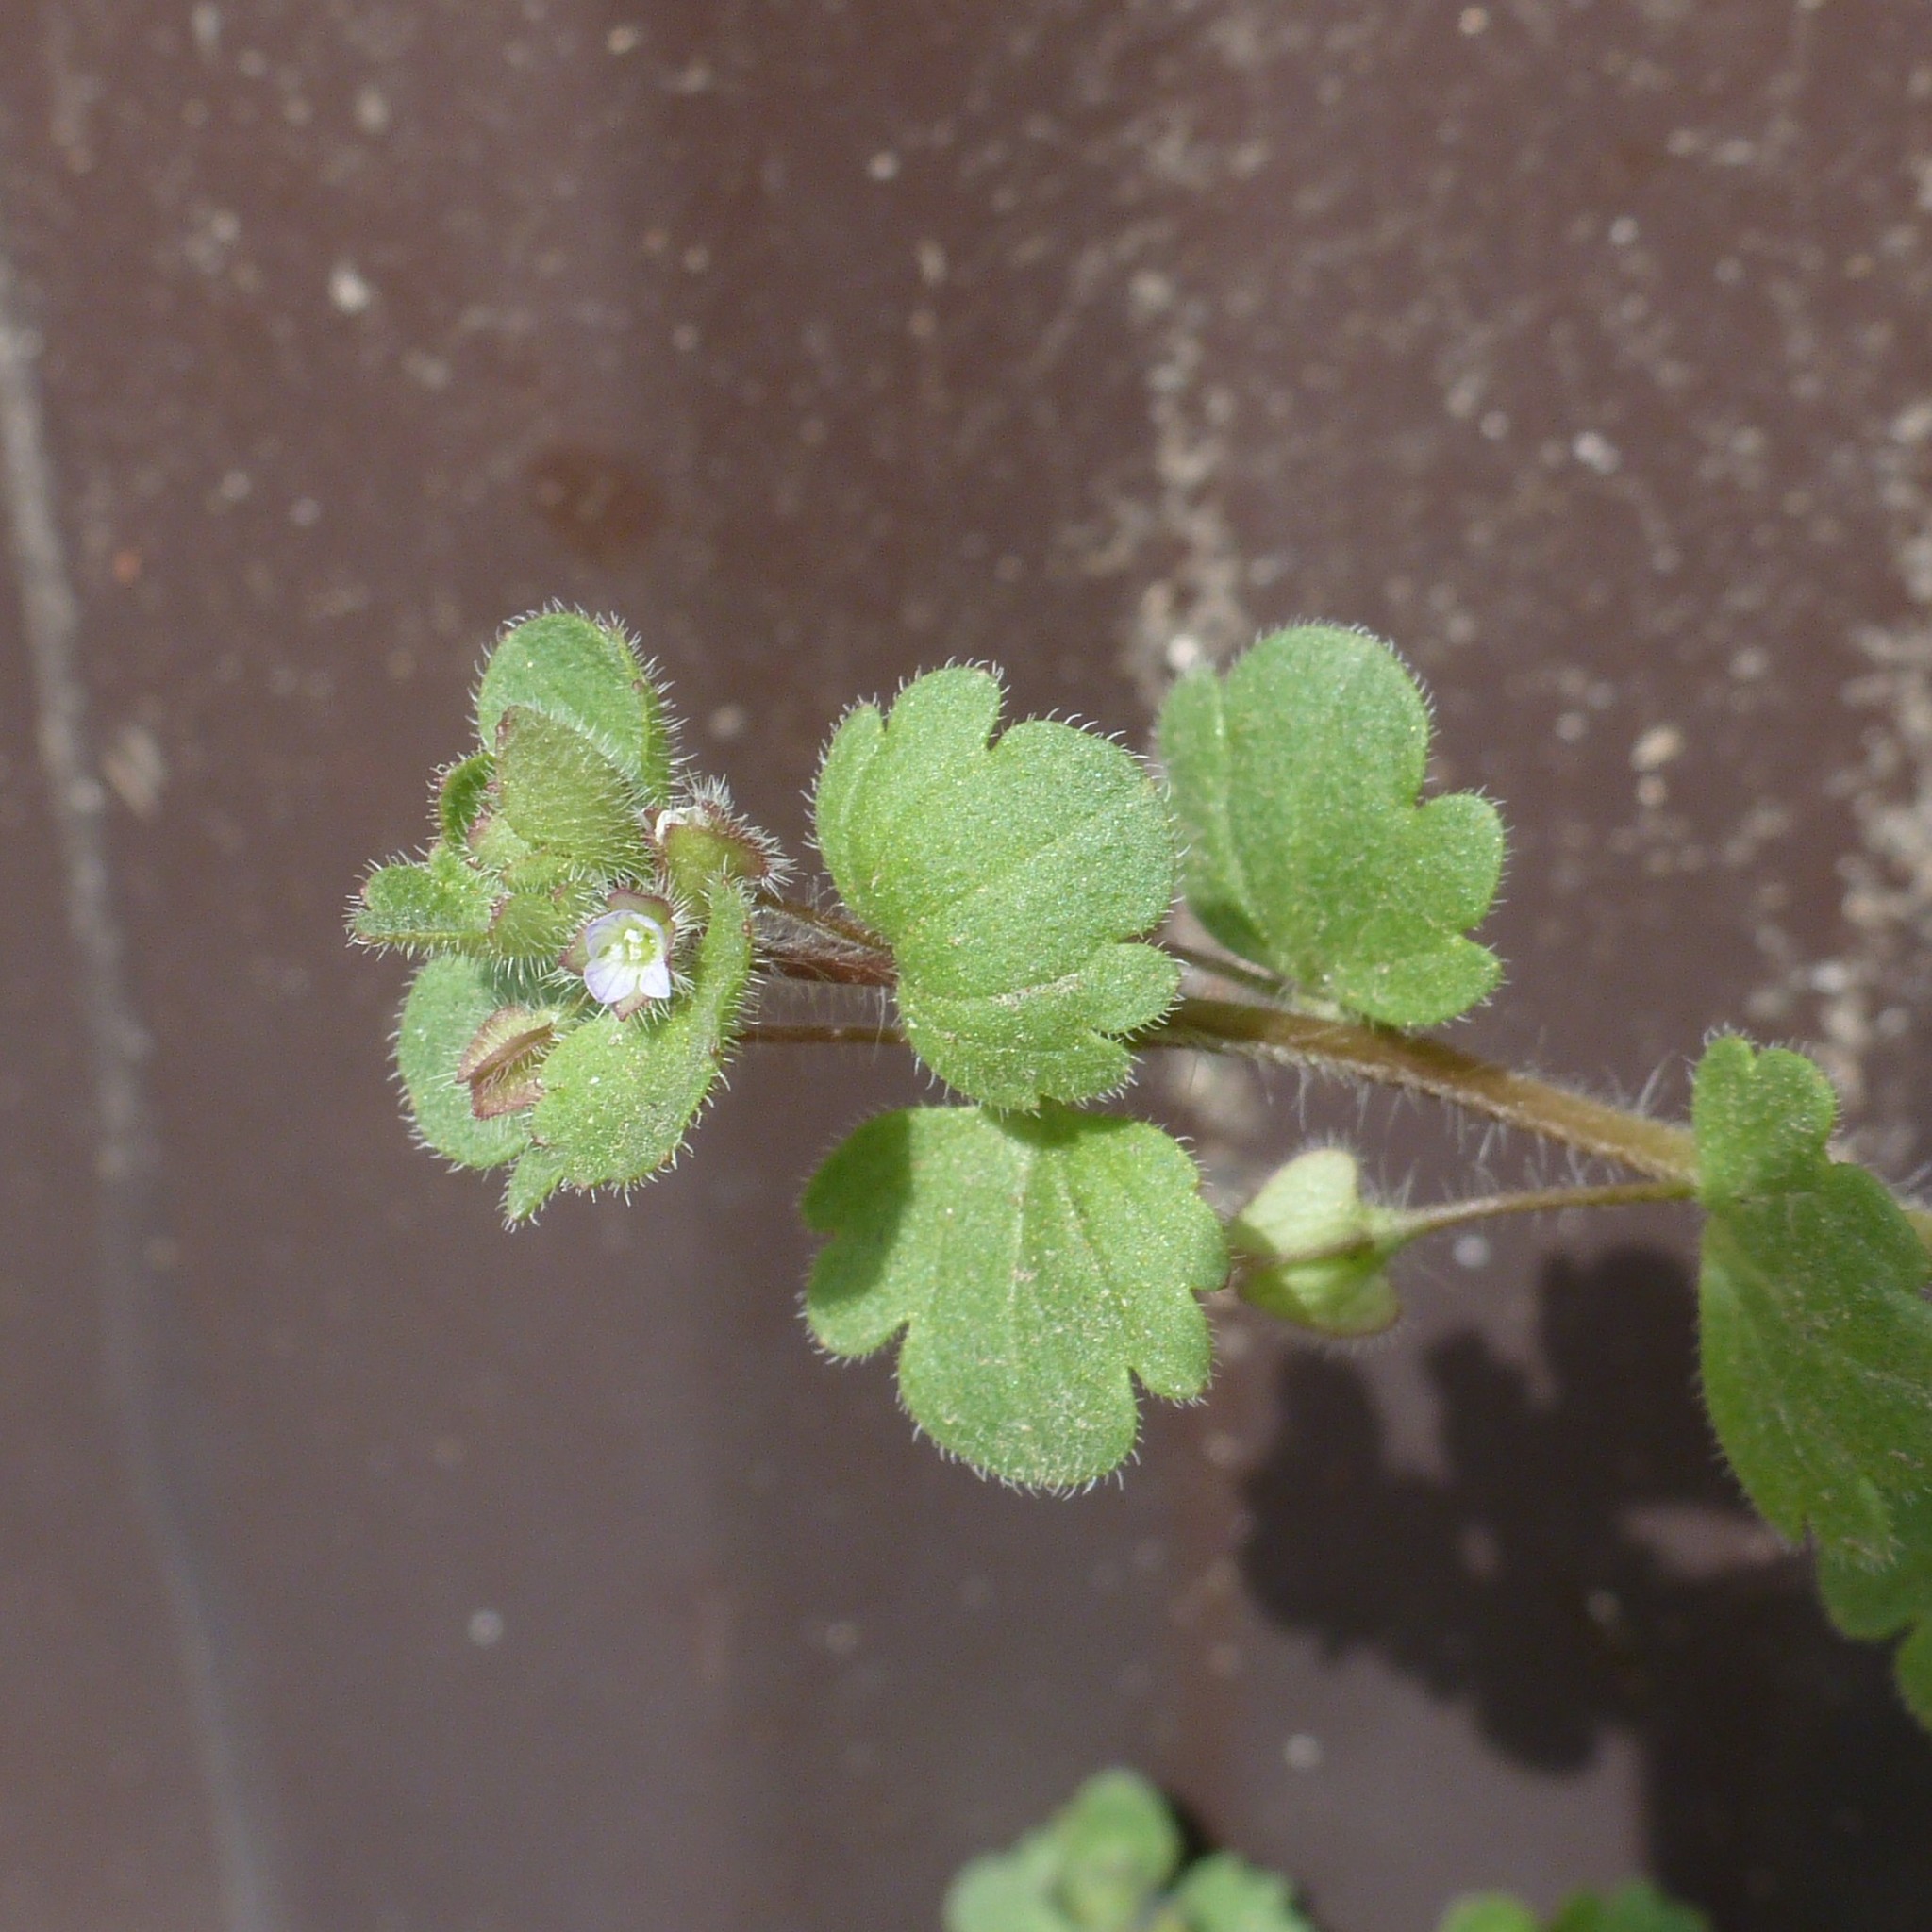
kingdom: Plantae
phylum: Tracheophyta
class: Magnoliopsida
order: Lamiales
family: Plantaginaceae
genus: Veronica
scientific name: Veronica sublobata
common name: False ivy-leaved speedwell
